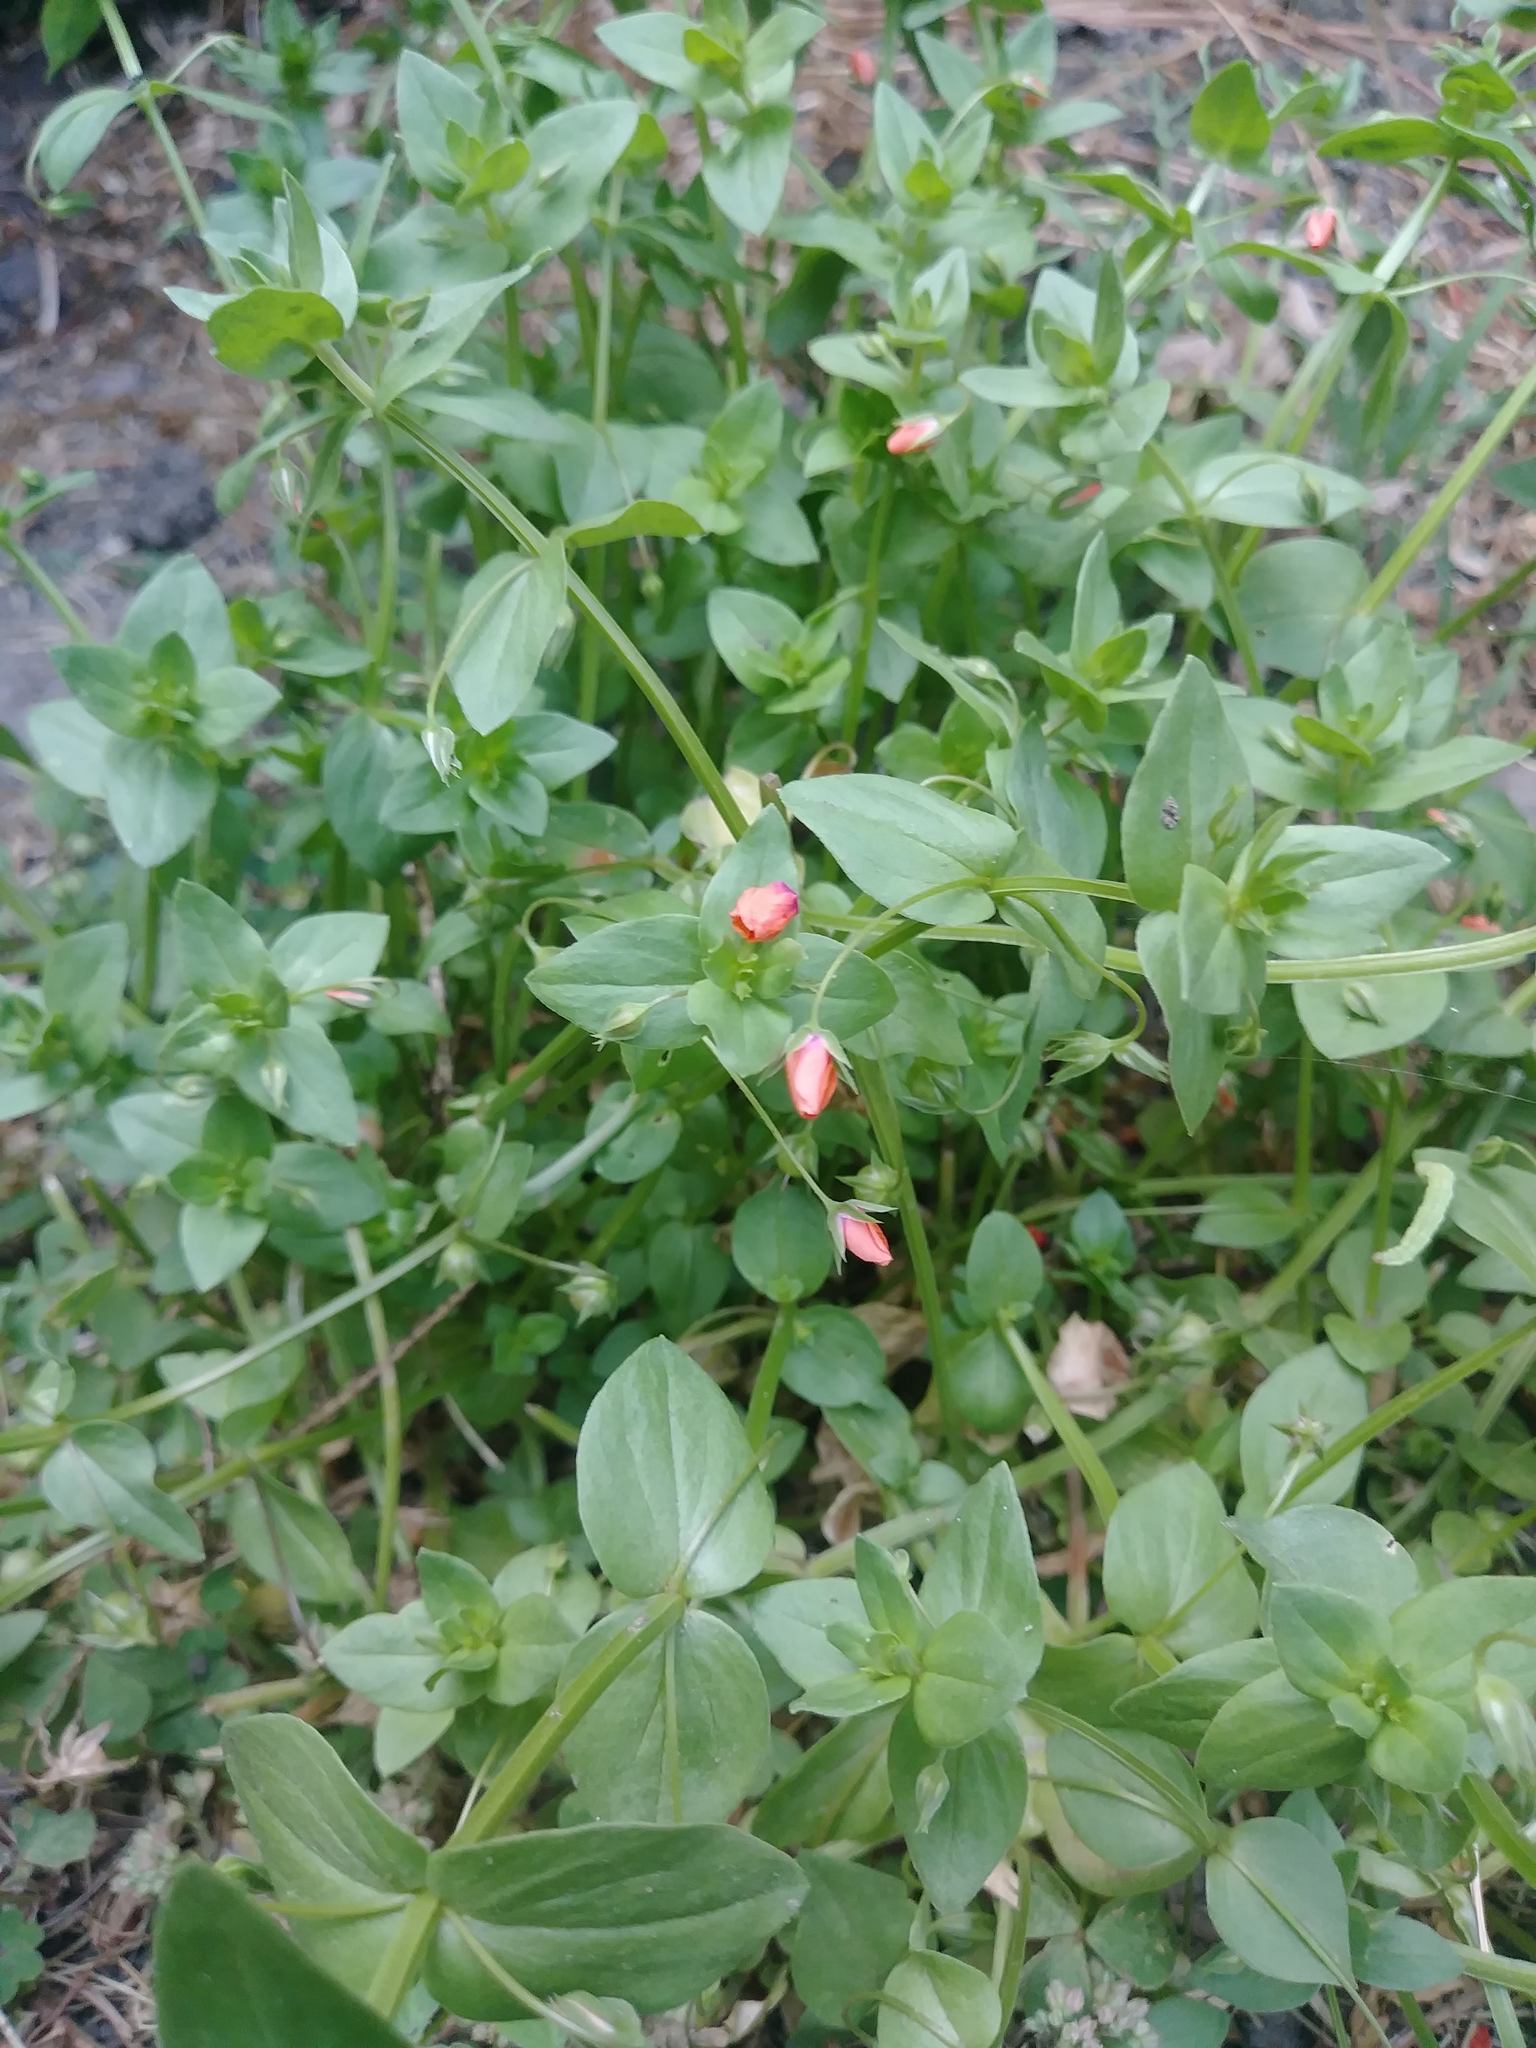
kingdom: Plantae
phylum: Tracheophyta
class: Magnoliopsida
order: Ericales
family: Primulaceae
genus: Lysimachia
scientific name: Lysimachia arvensis
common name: Scarlet pimpernel
